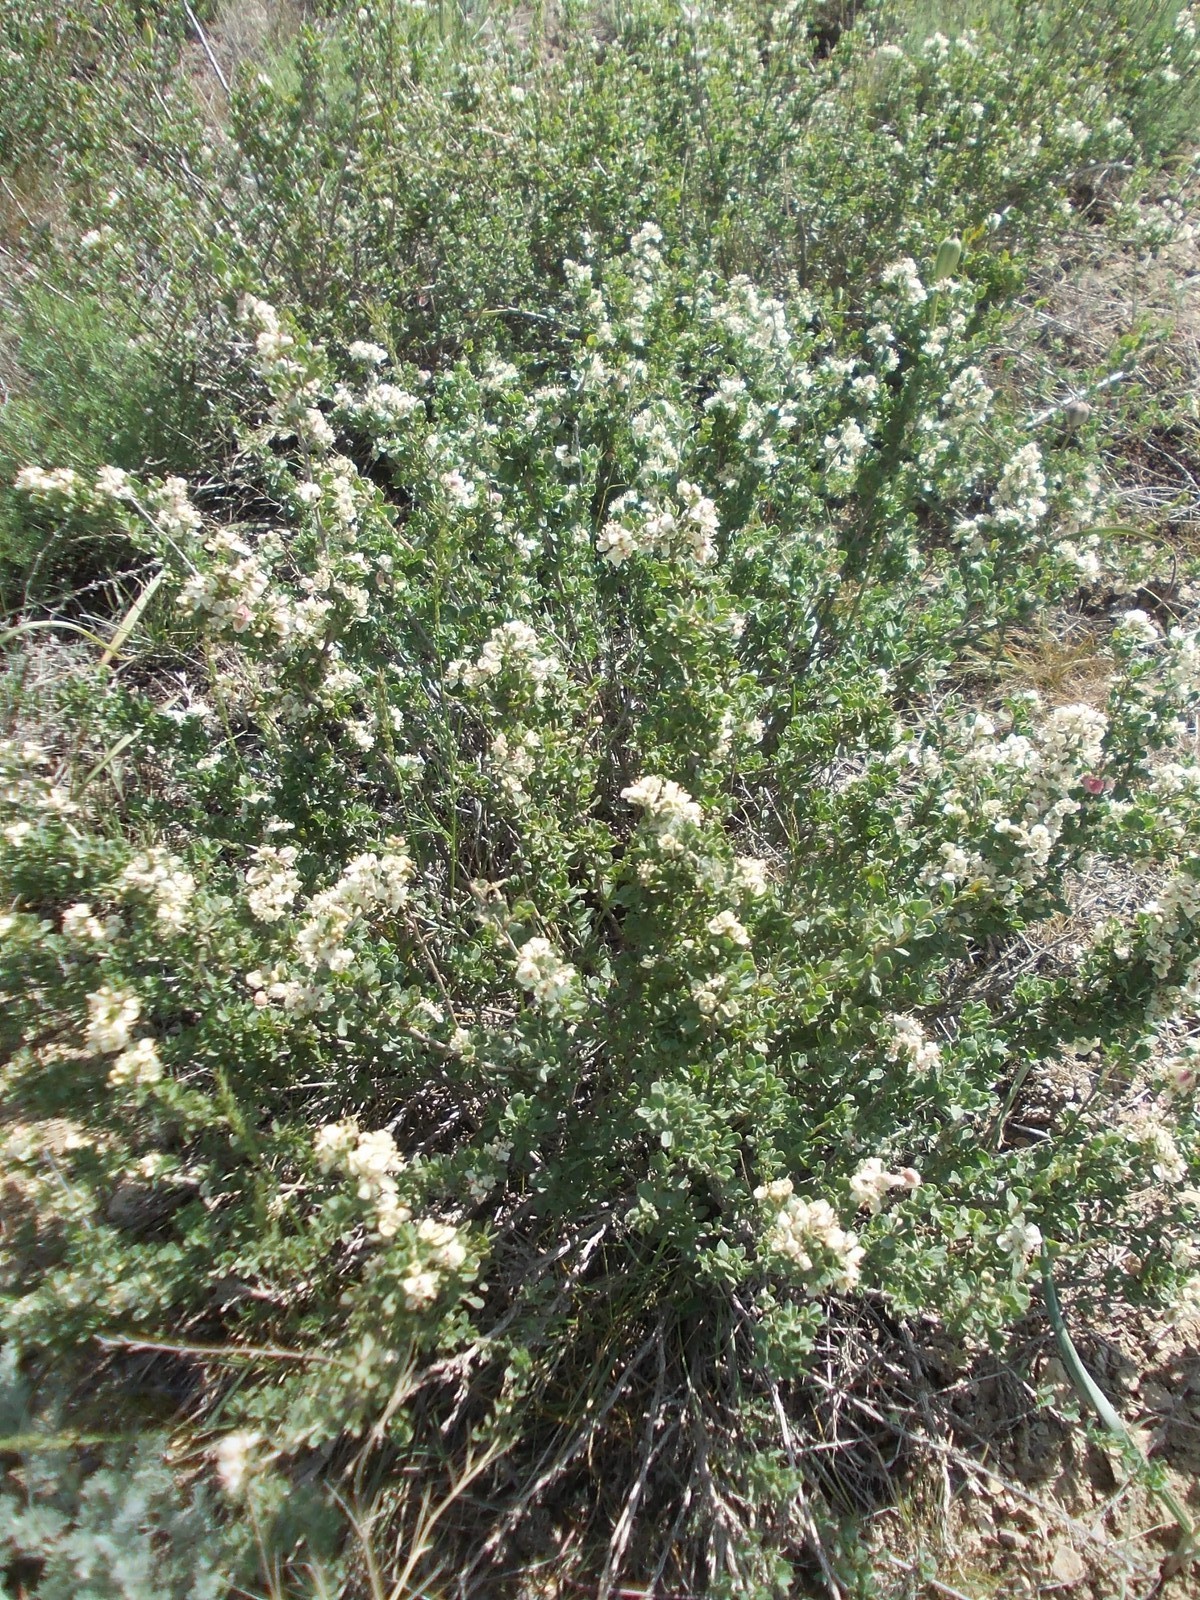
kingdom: Plantae
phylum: Tracheophyta
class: Magnoliopsida
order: Caryophyllales
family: Polygonaceae
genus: Atraphaxis
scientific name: Atraphaxis replicata
